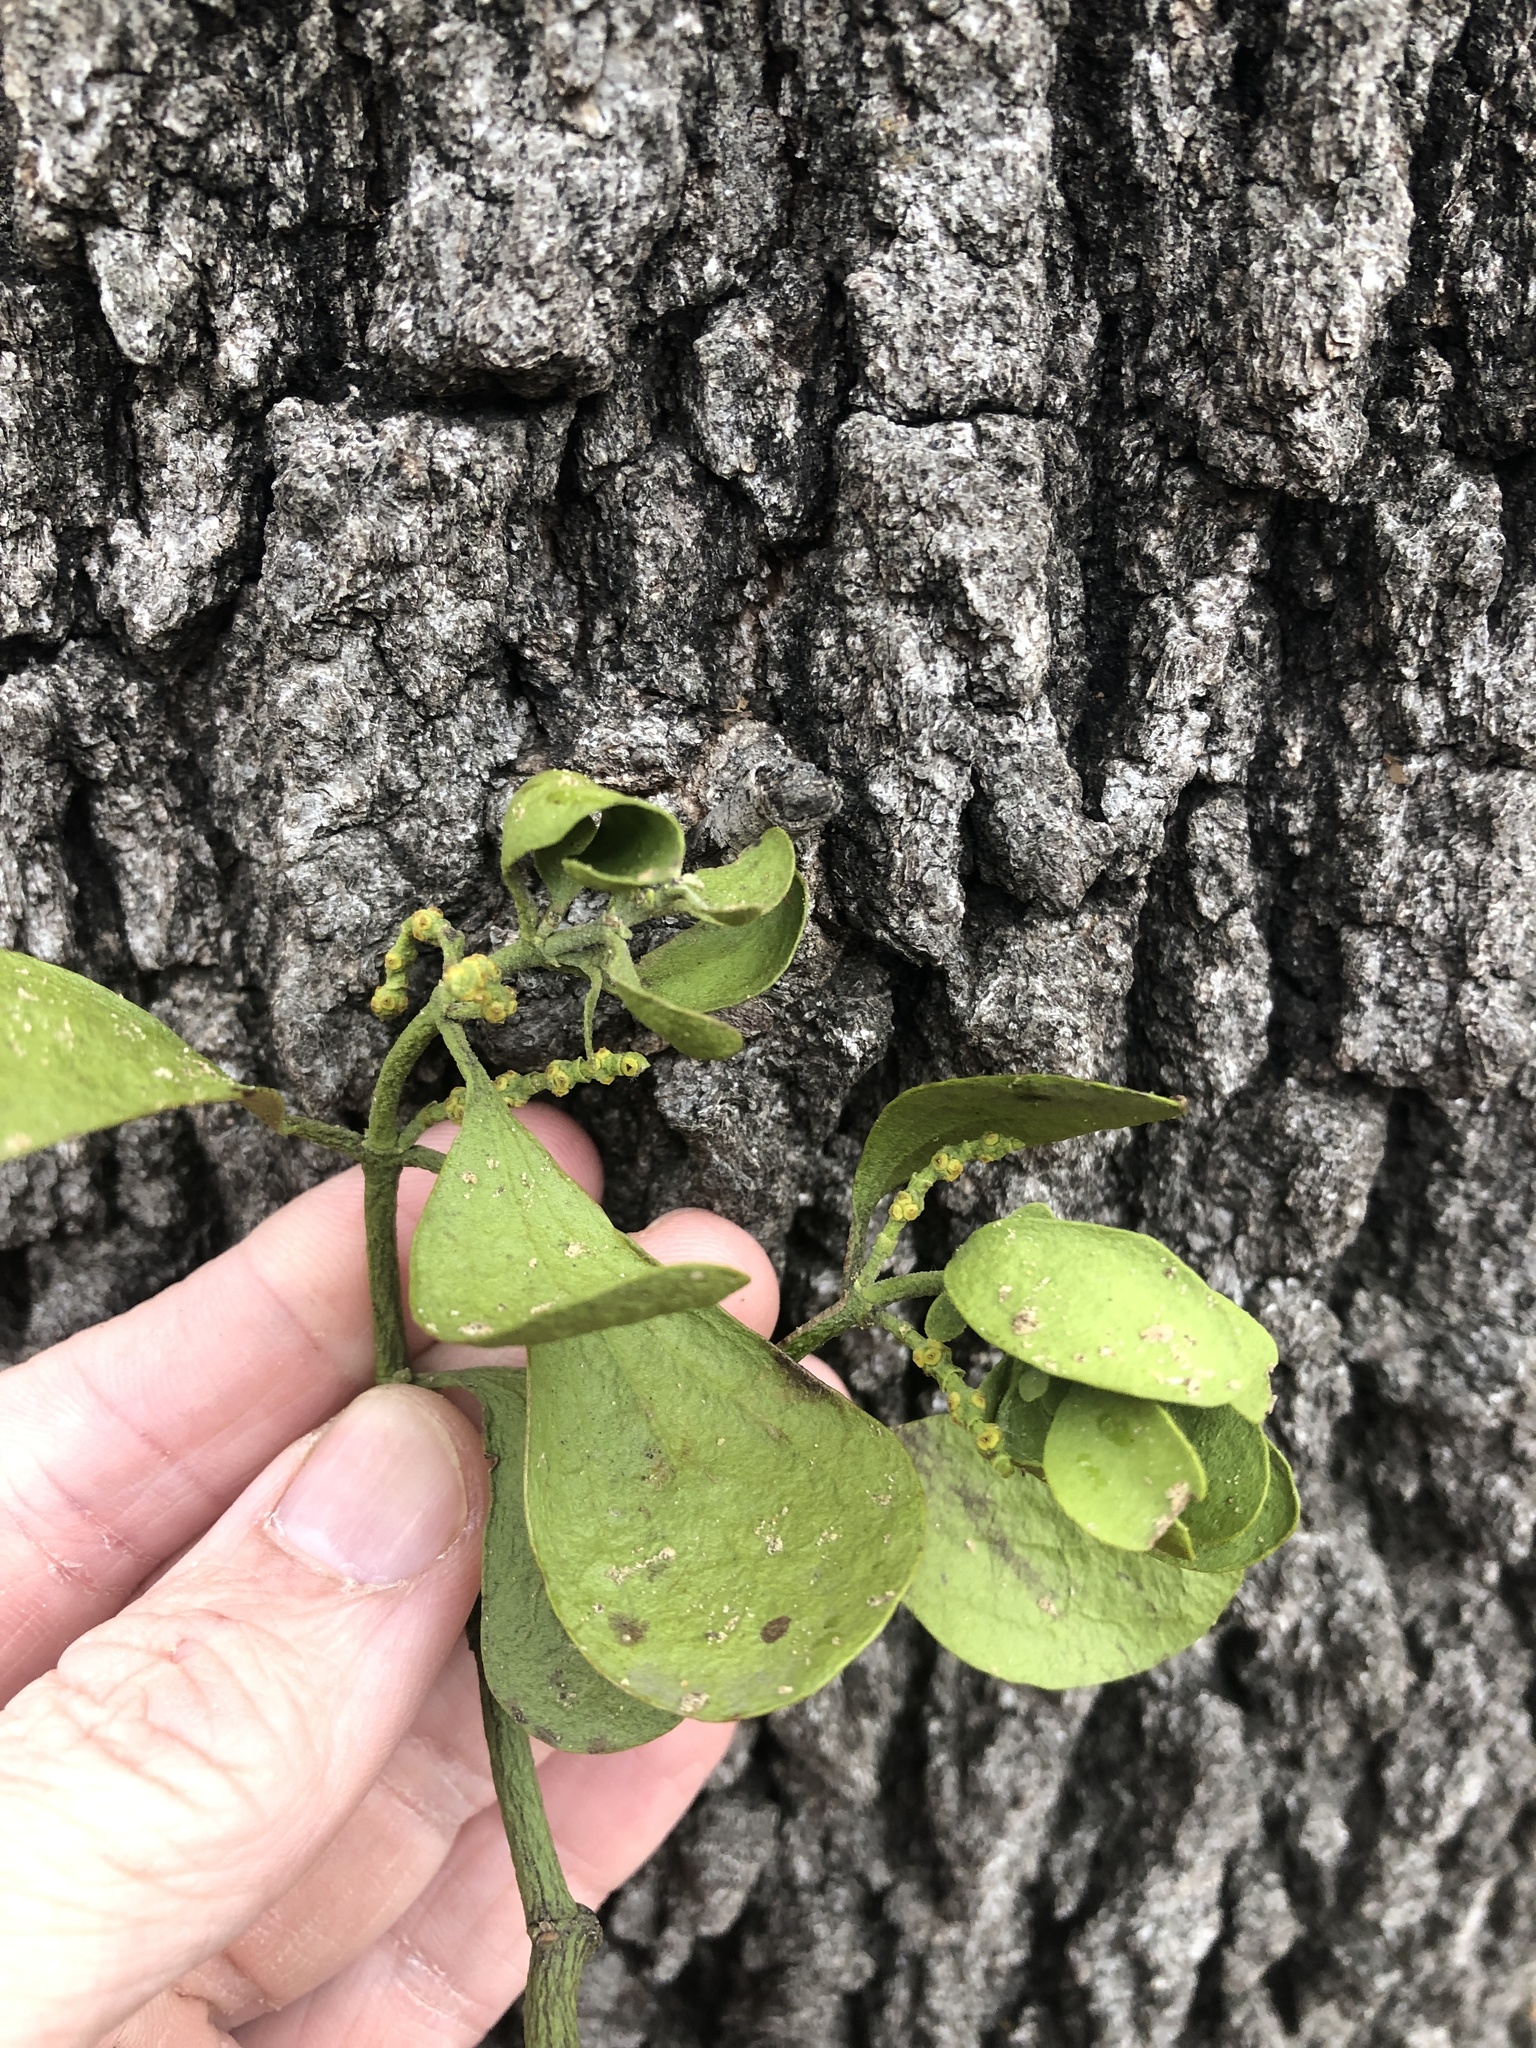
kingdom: Plantae
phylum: Tracheophyta
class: Magnoliopsida
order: Santalales
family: Viscaceae
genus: Phoradendron
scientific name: Phoradendron leucarpum
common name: Pacific mistletoe
